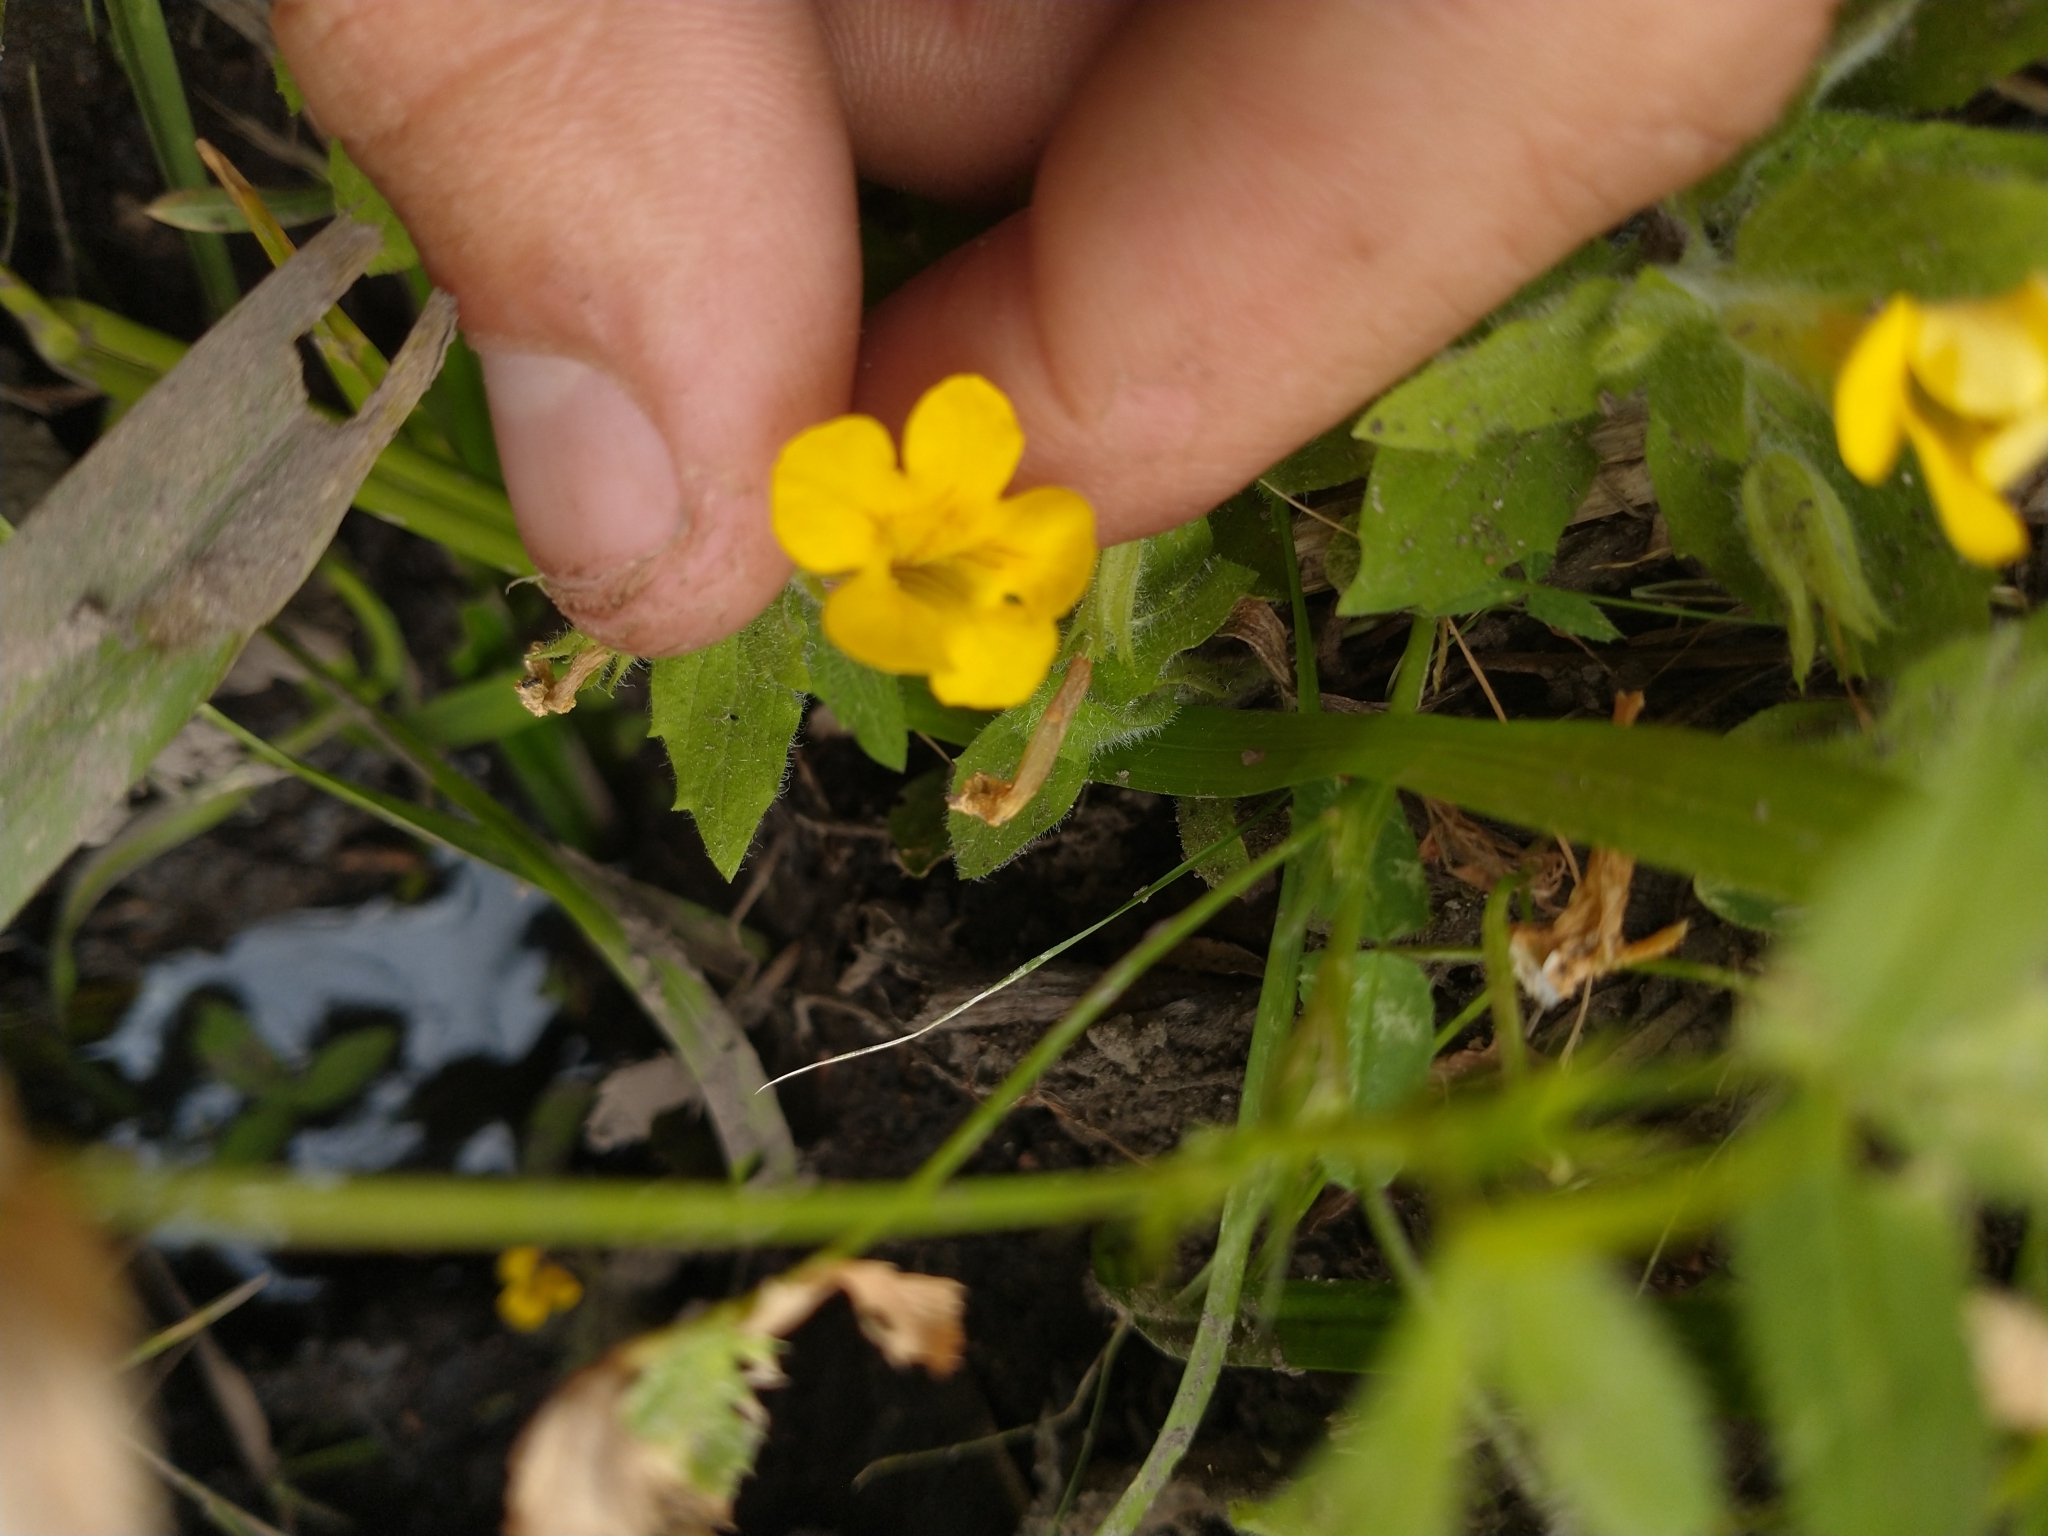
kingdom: Plantae
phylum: Tracheophyta
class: Magnoliopsida
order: Lamiales
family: Phrymaceae
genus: Erythranthe
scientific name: Erythranthe moschata
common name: Muskflower
